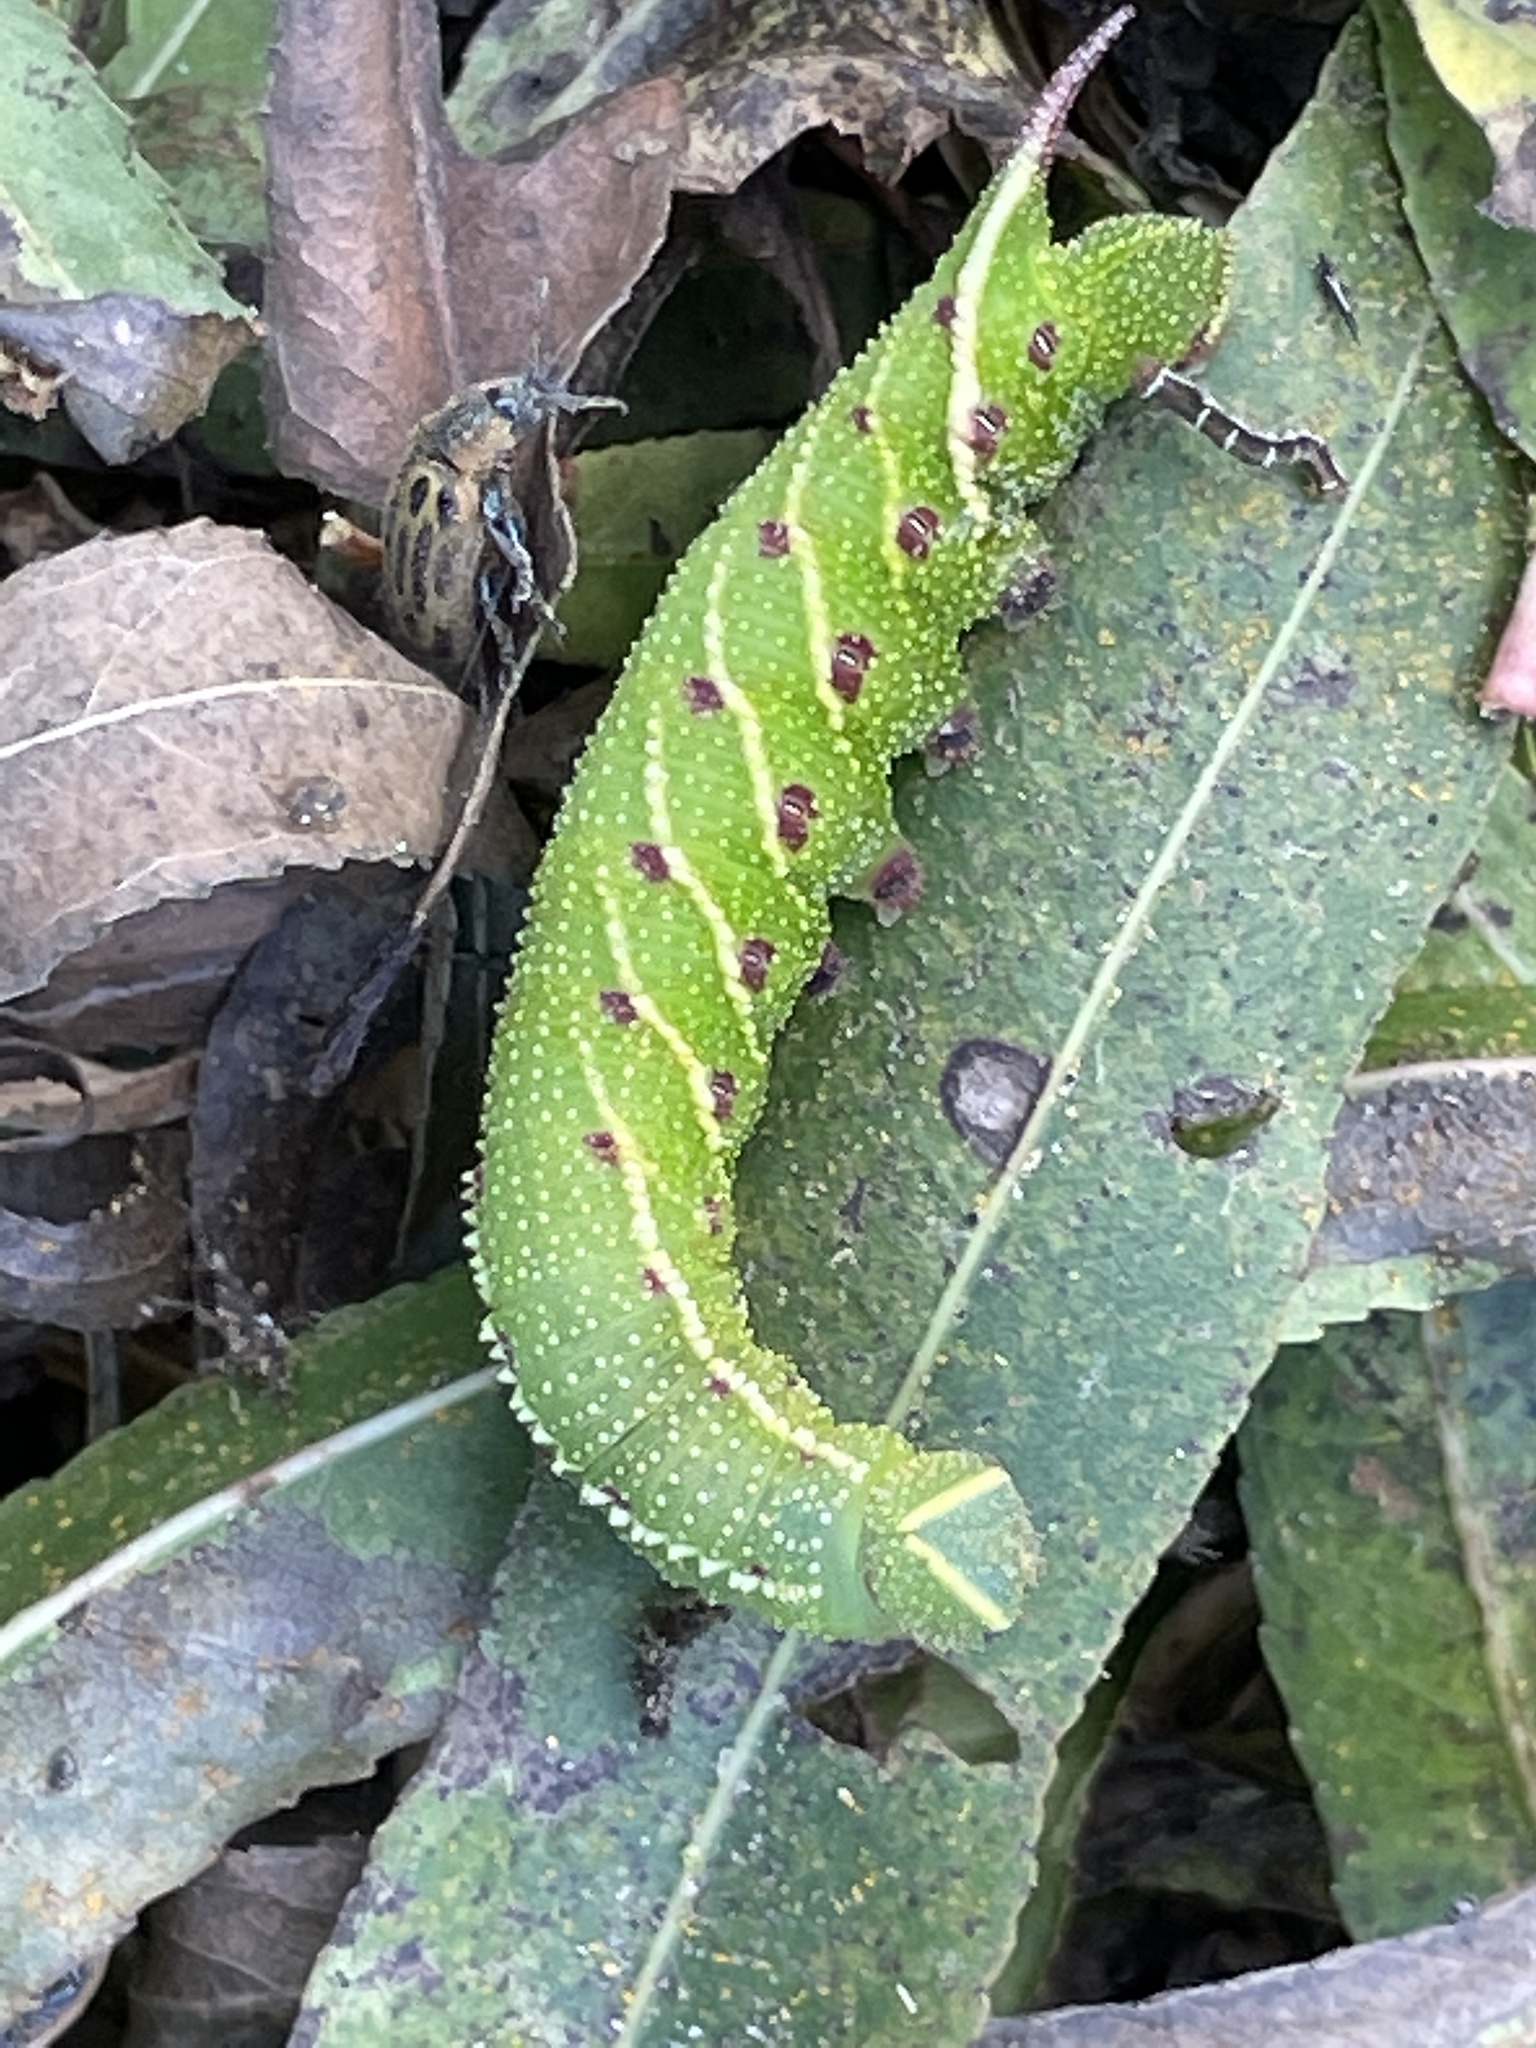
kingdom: Animalia
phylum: Arthropoda
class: Insecta
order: Lepidoptera
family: Sphingidae
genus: Smerinthus
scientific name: Smerinthus jamaicensis
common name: Twin spotted sphinx
